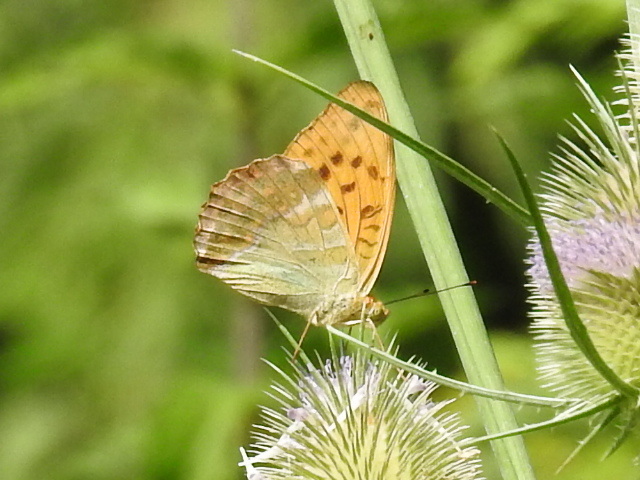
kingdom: Animalia
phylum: Arthropoda
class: Insecta
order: Lepidoptera
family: Nymphalidae
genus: Argynnis
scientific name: Argynnis paphia
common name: Silver-washed fritillary
